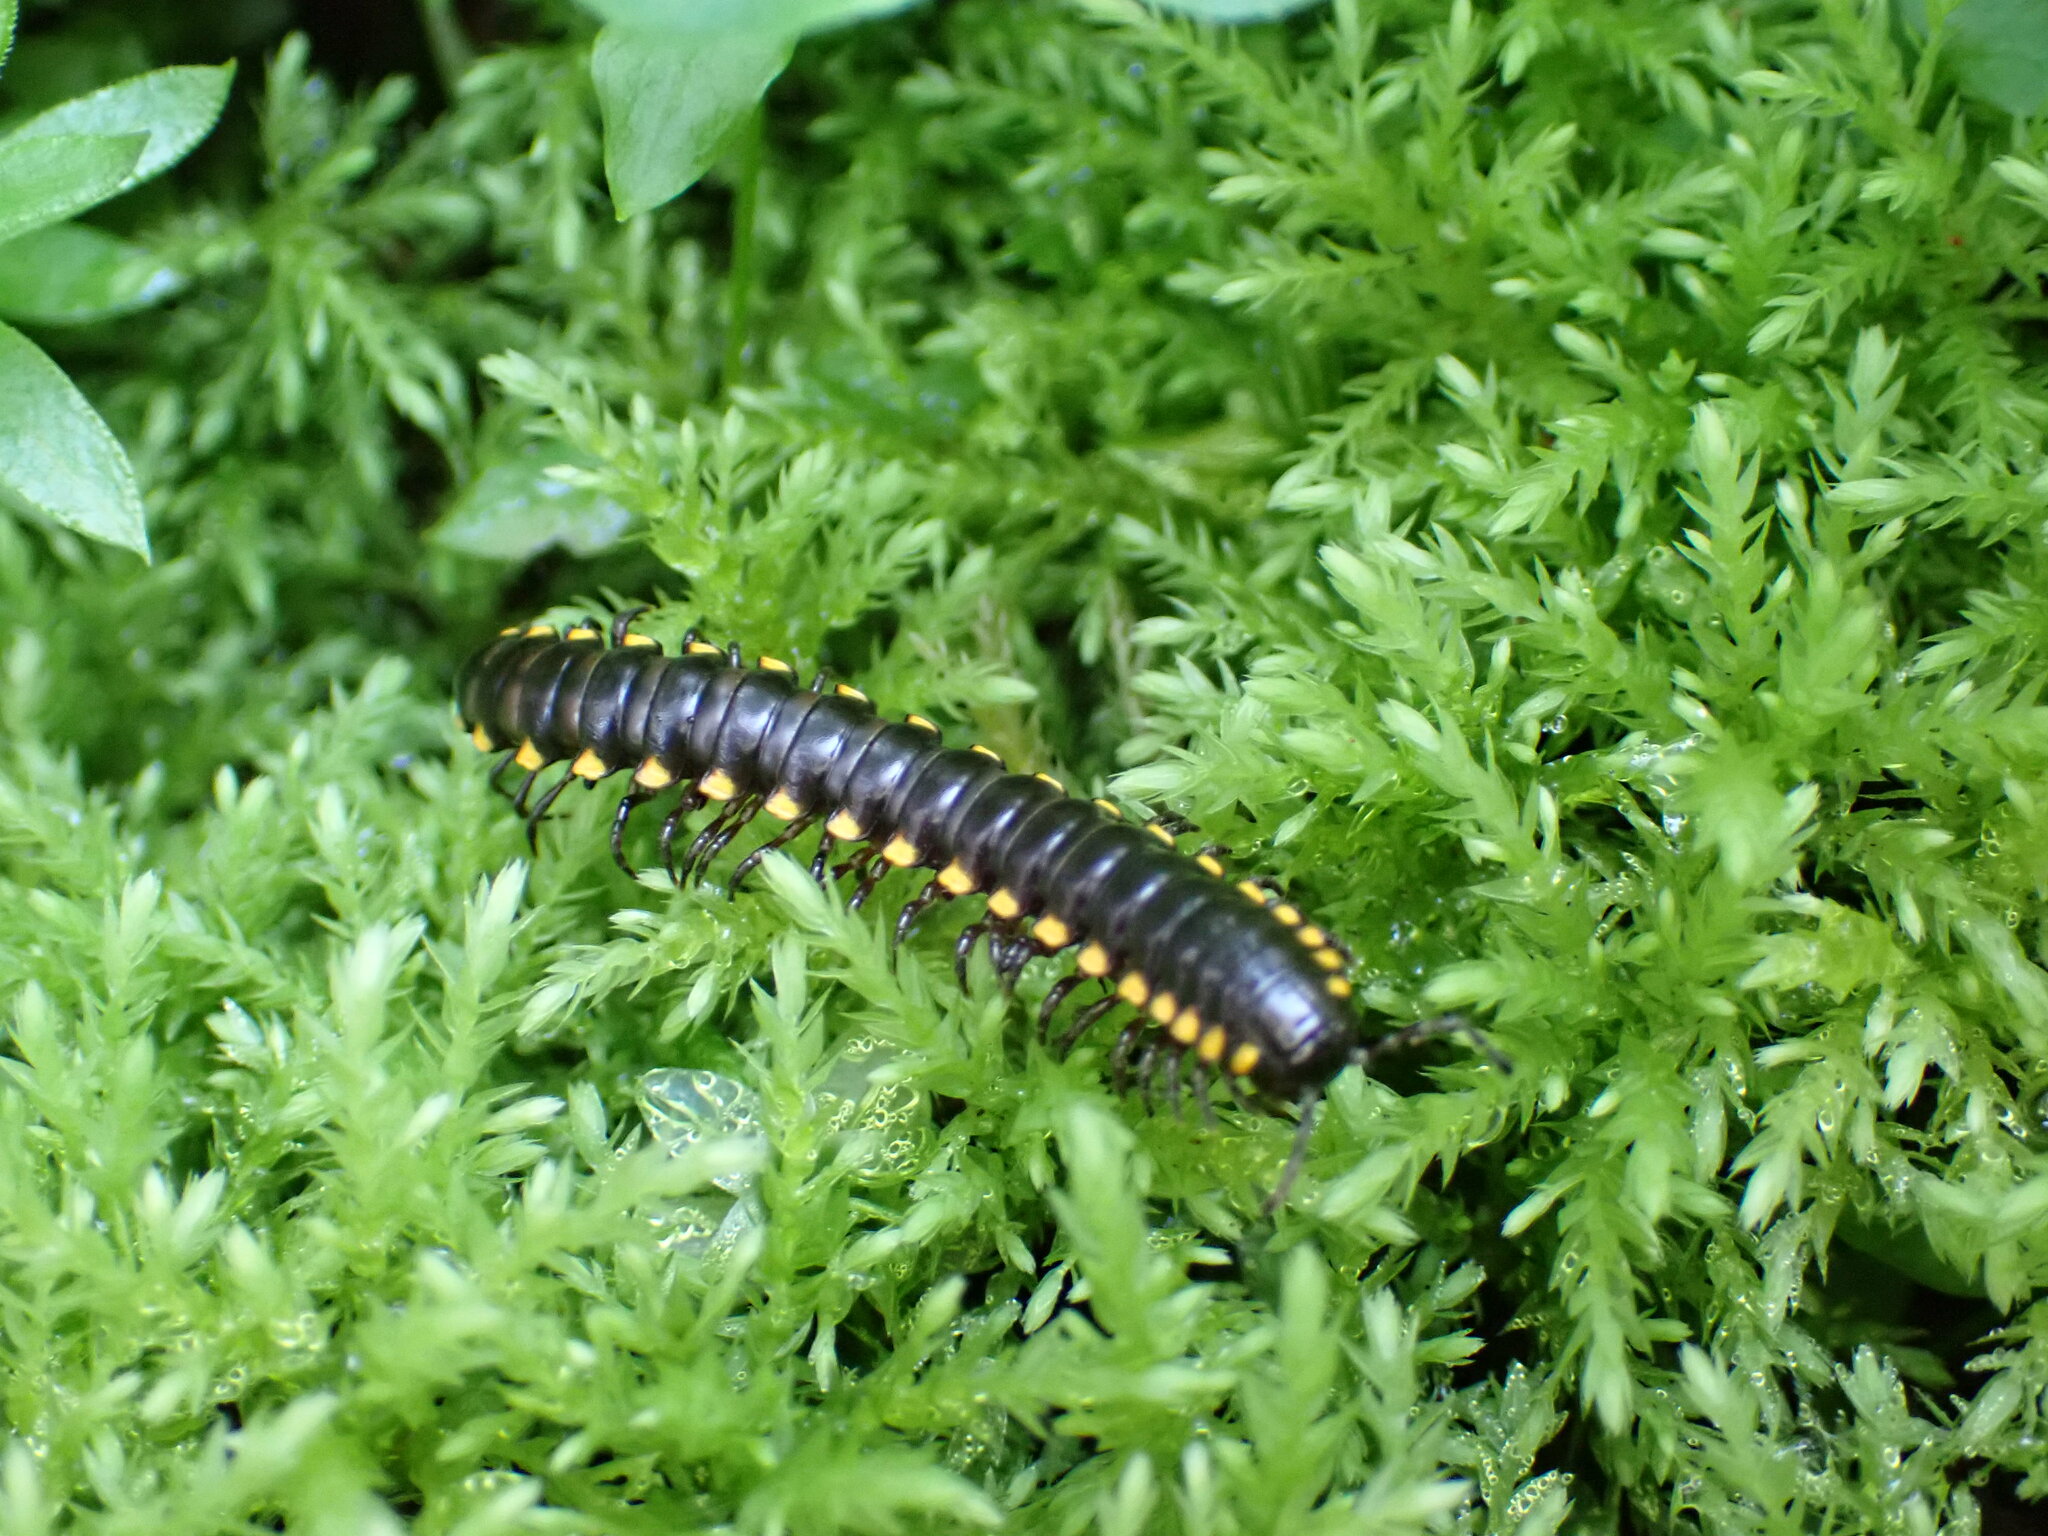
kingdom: Animalia
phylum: Arthropoda
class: Diplopoda
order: Polydesmida
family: Xystodesmidae
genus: Harpaphe
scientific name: Harpaphe haydeniana
